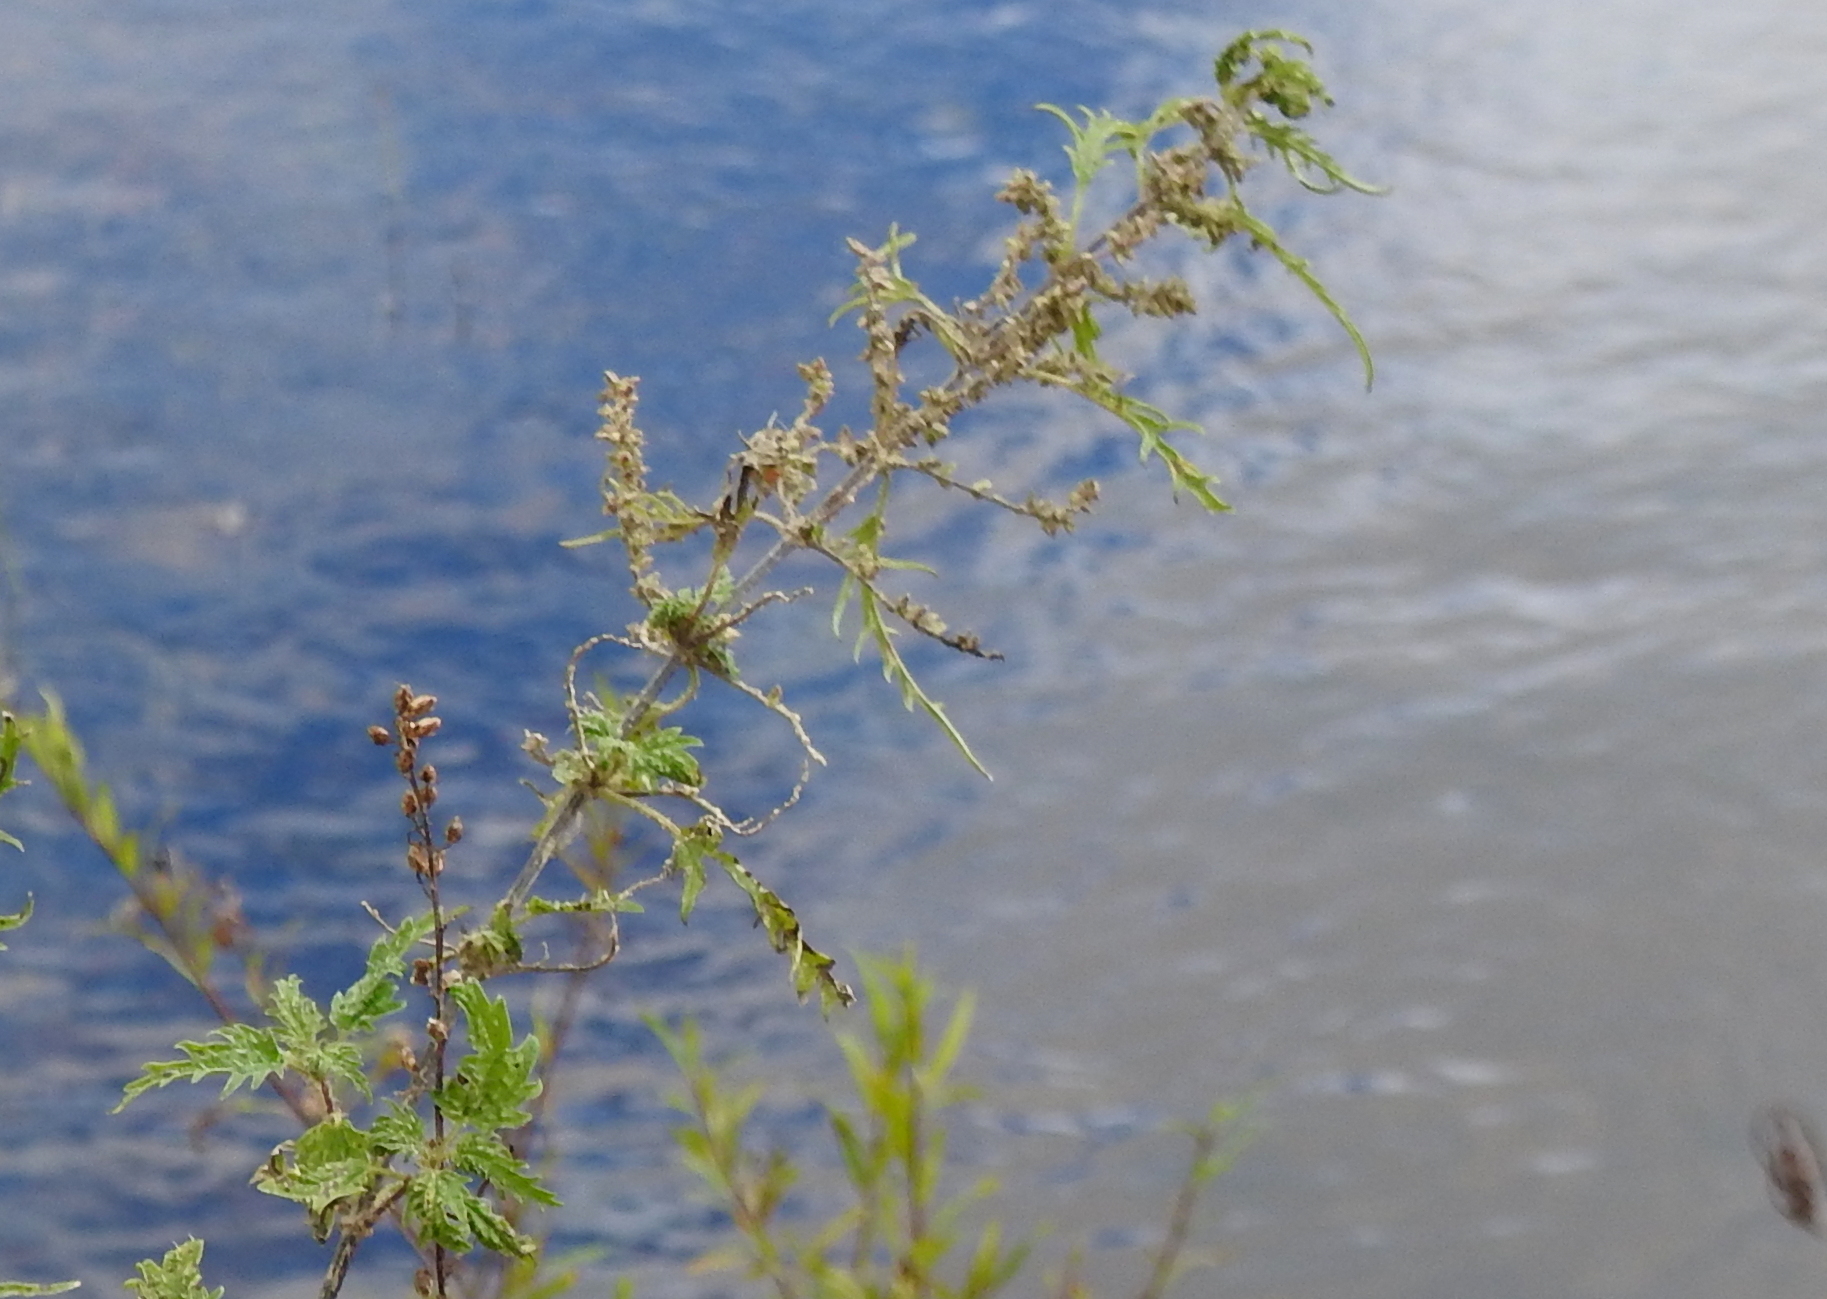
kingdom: Plantae
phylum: Tracheophyta
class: Magnoliopsida
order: Rosales
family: Urticaceae
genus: Urtica
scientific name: Urtica cannabina
